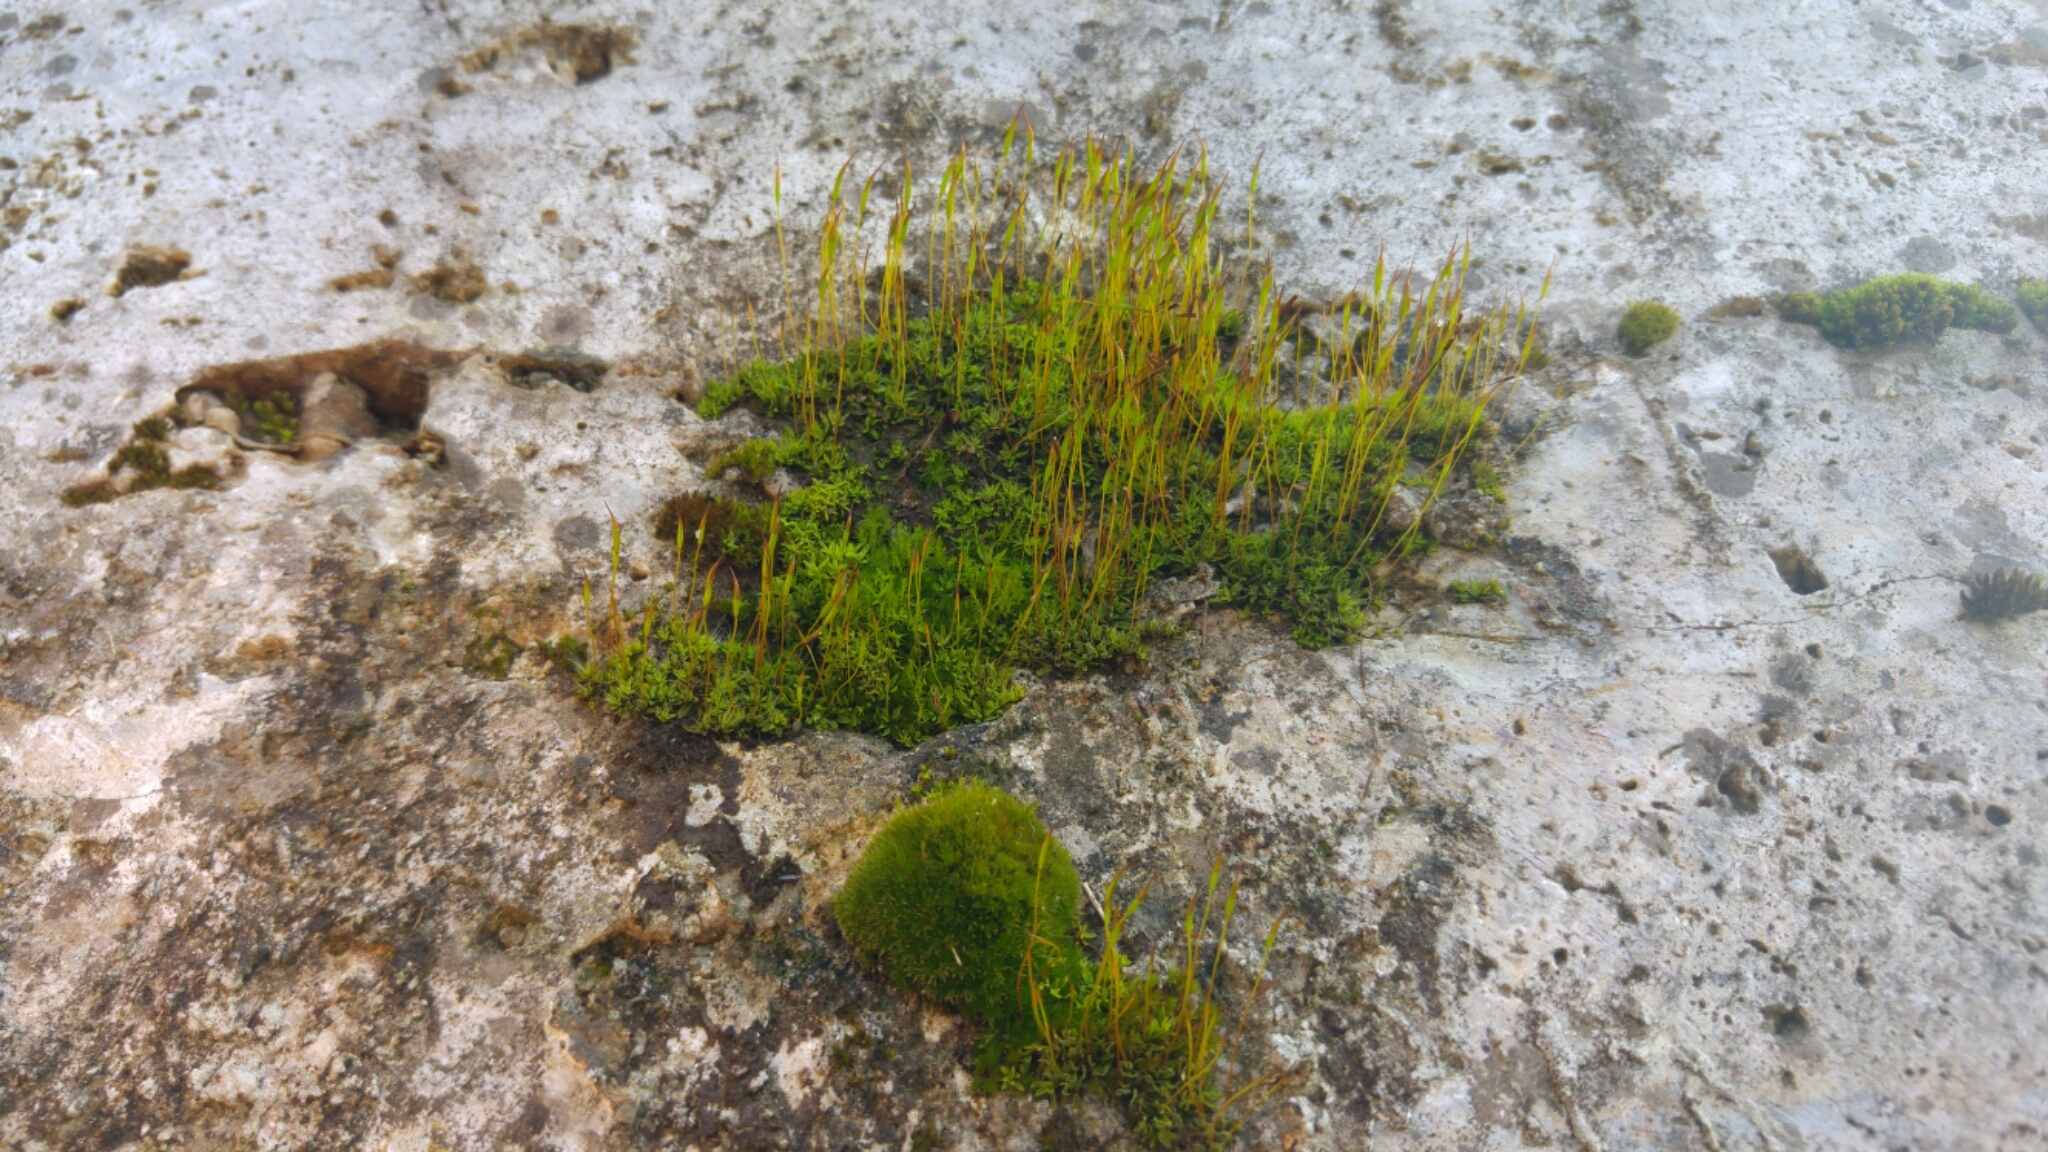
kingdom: Plantae
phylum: Bryophyta
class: Bryopsida
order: Pottiales
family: Pottiaceae
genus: Tortula
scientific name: Tortula muralis
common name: Wall screw-moss
